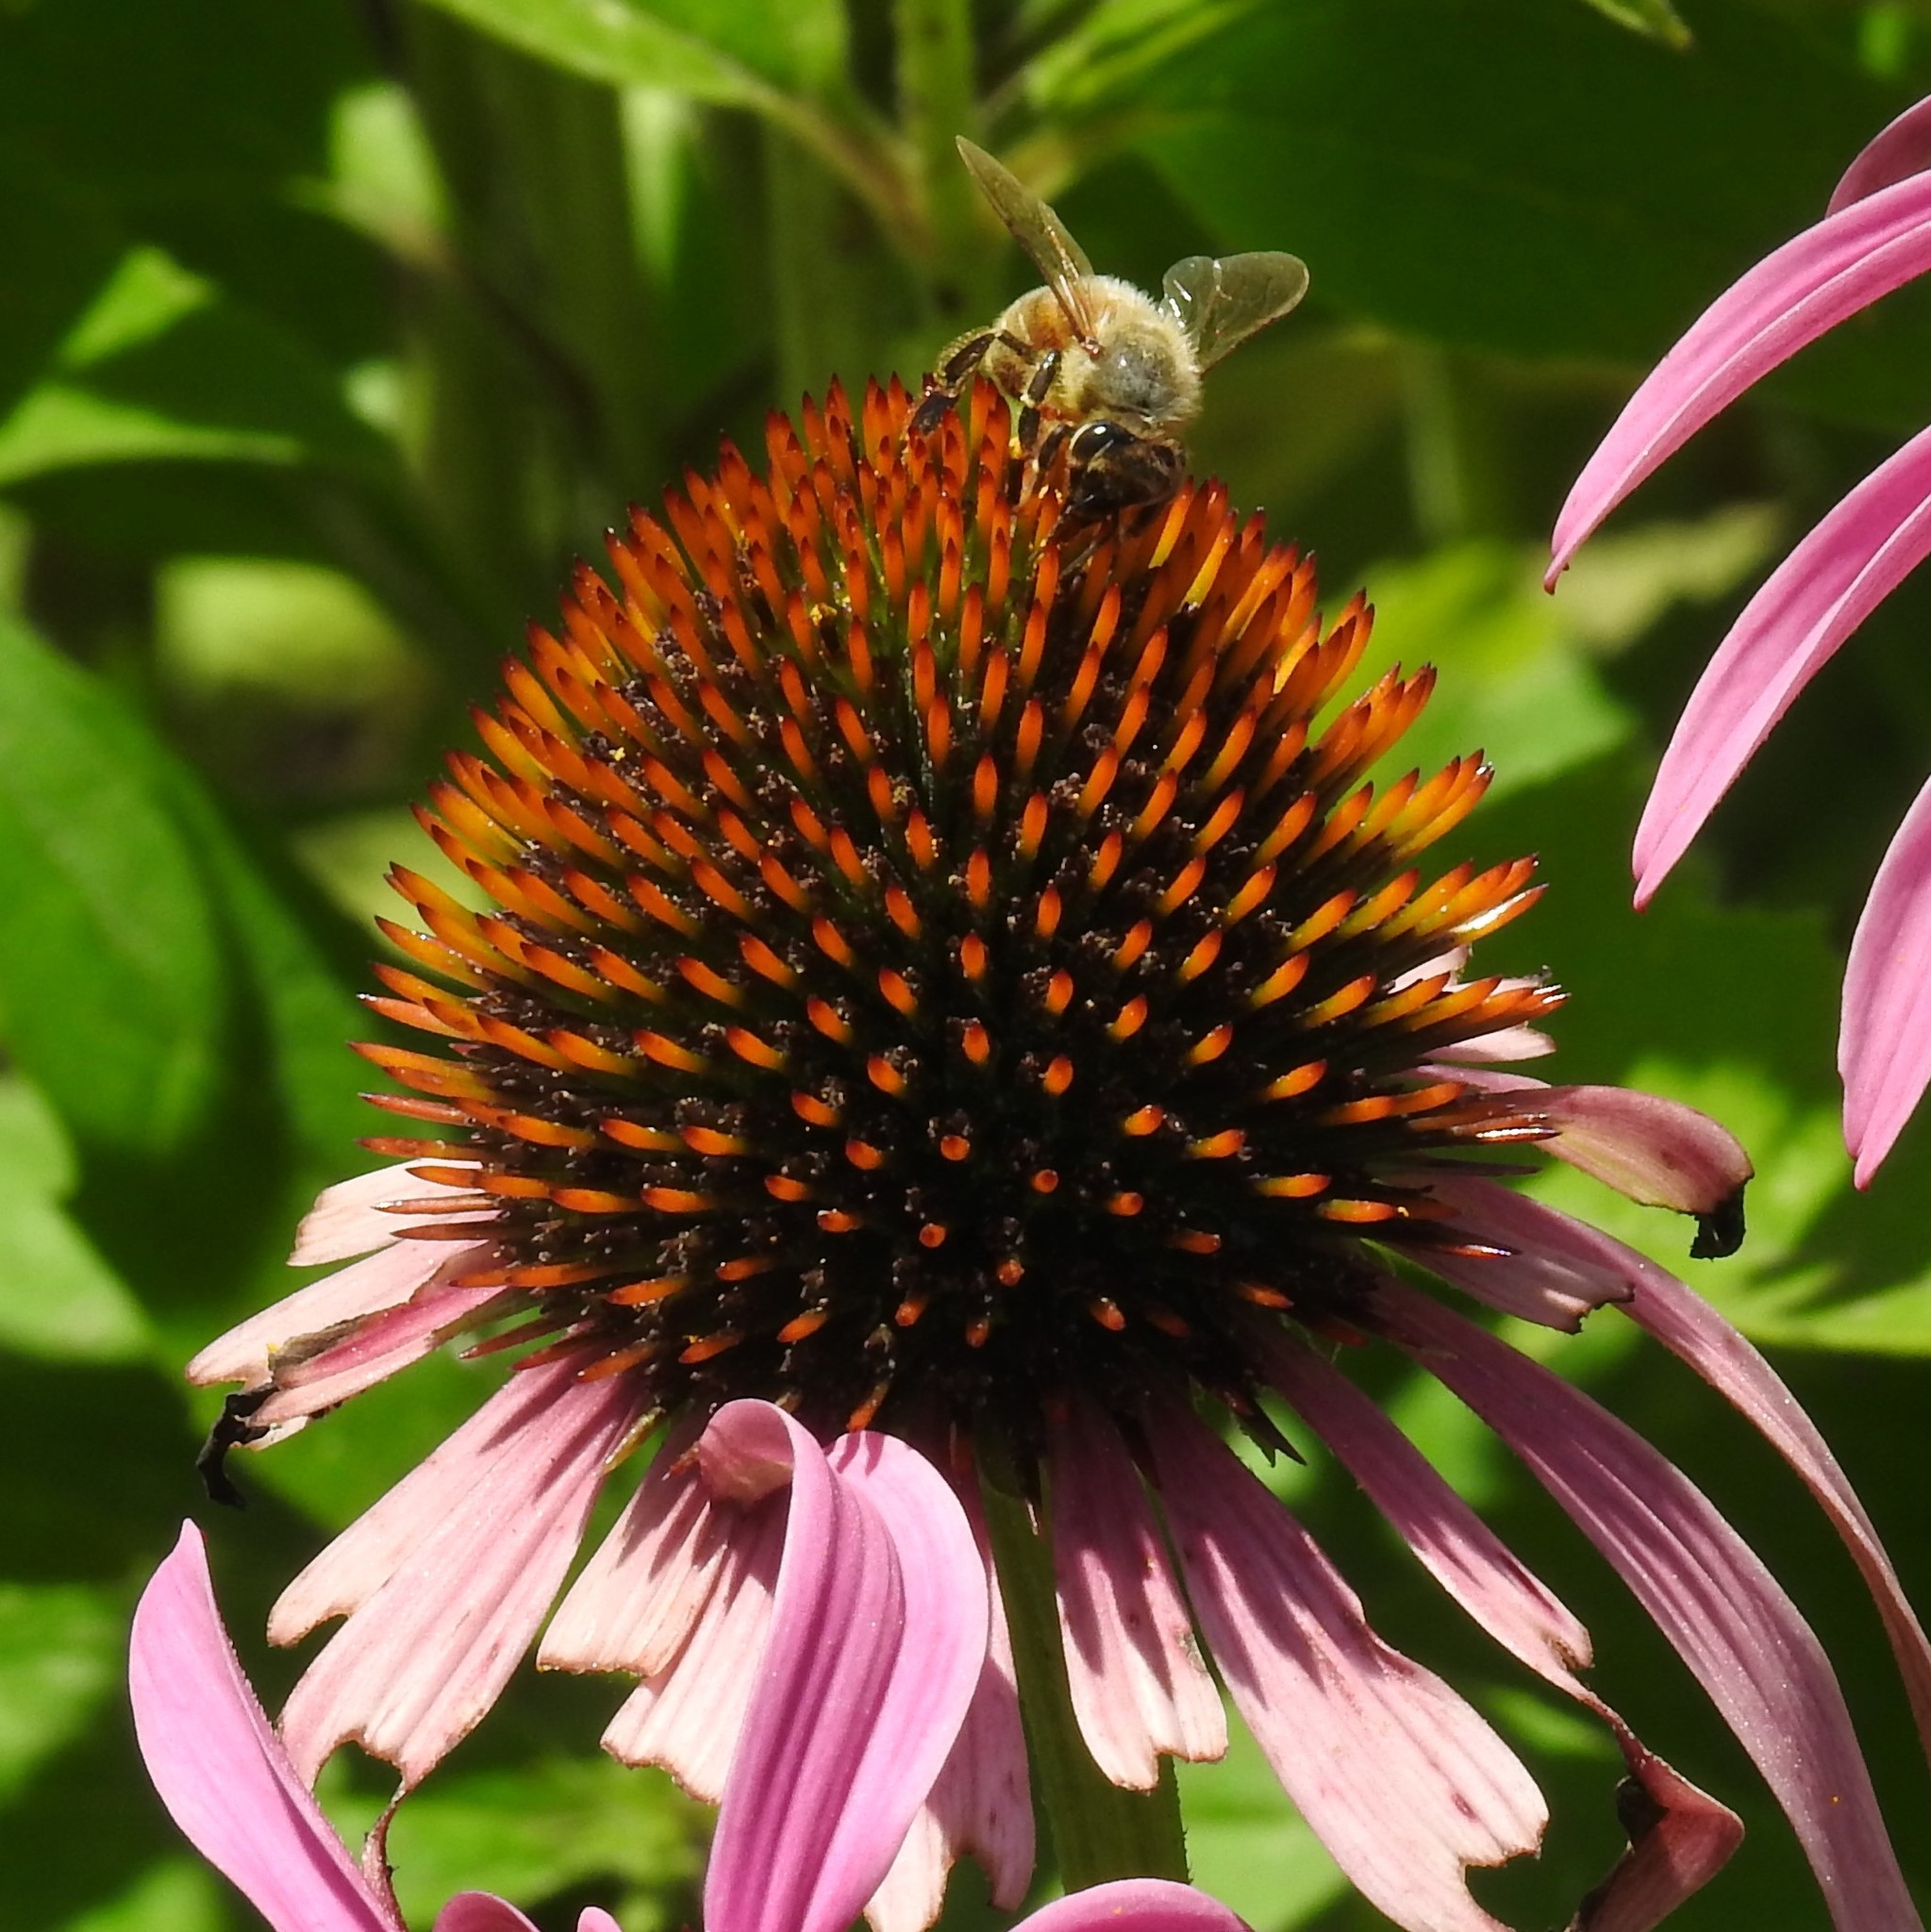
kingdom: Animalia
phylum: Arthropoda
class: Insecta
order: Hymenoptera
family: Apidae
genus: Apis
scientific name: Apis mellifera
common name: Honey bee
